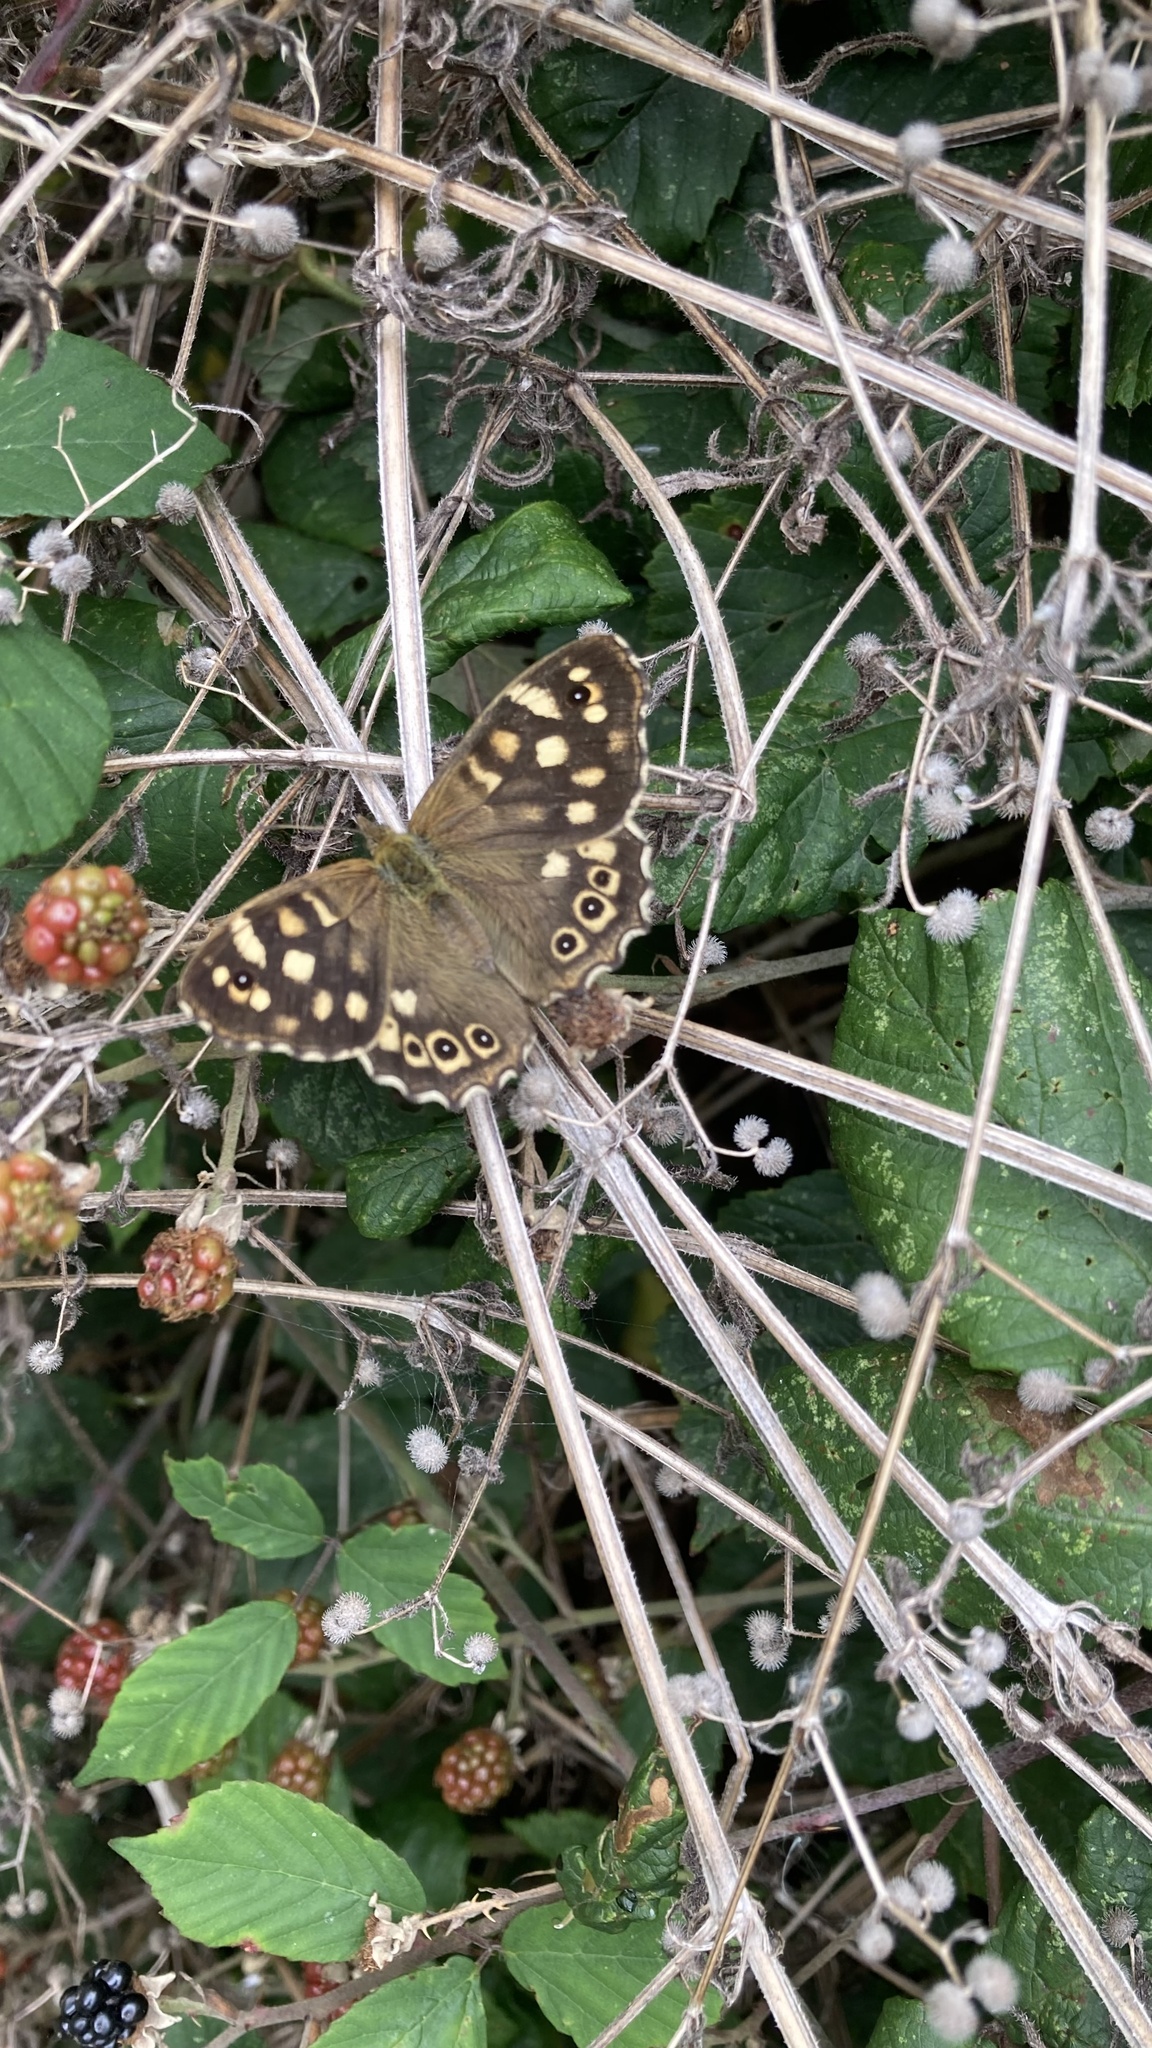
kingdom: Animalia
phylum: Arthropoda
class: Insecta
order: Lepidoptera
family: Nymphalidae
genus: Pararge
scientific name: Pararge aegeria
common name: Speckled wood
